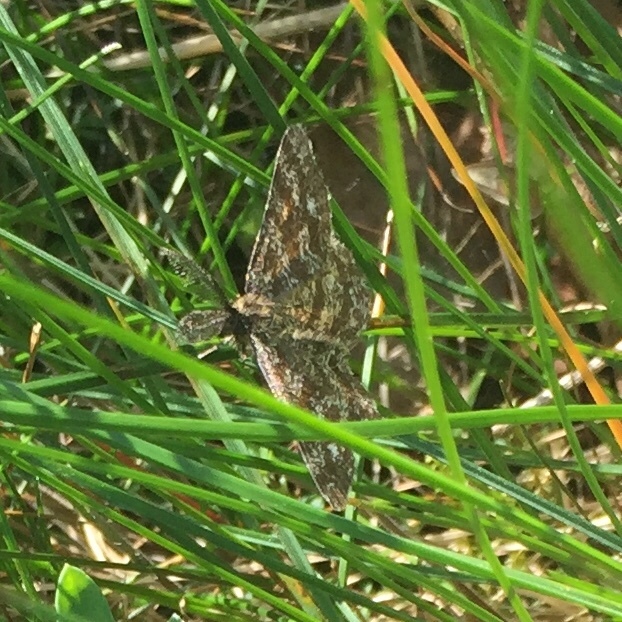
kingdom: Animalia
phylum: Arthropoda
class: Insecta
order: Lepidoptera
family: Geometridae
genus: Ematurga
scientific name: Ematurga atomaria
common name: Common heath
